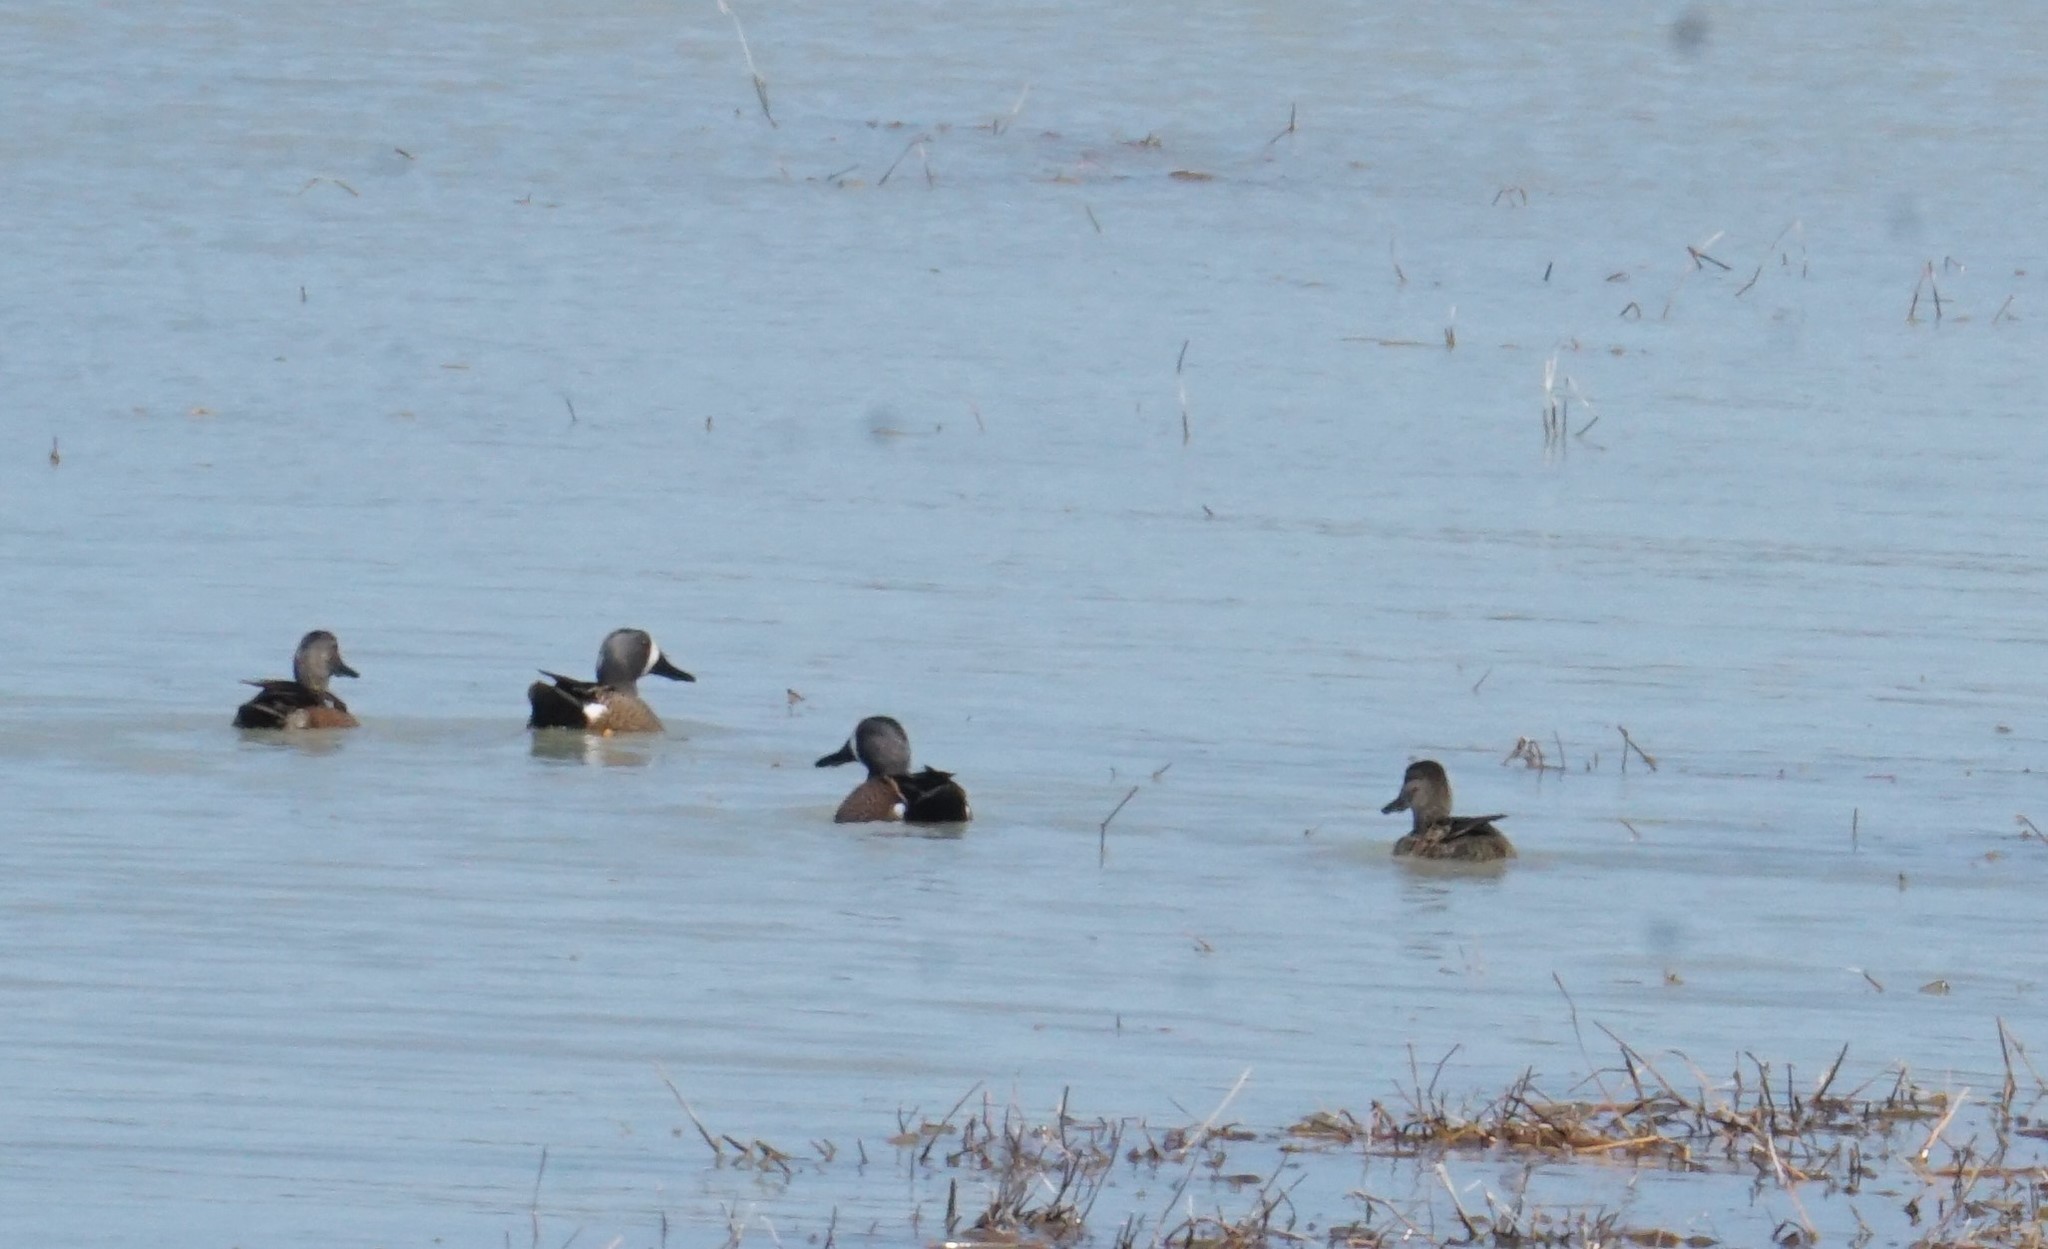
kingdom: Animalia
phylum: Chordata
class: Aves
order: Anseriformes
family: Anatidae
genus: Spatula
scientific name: Spatula discors
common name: Blue-winged teal
